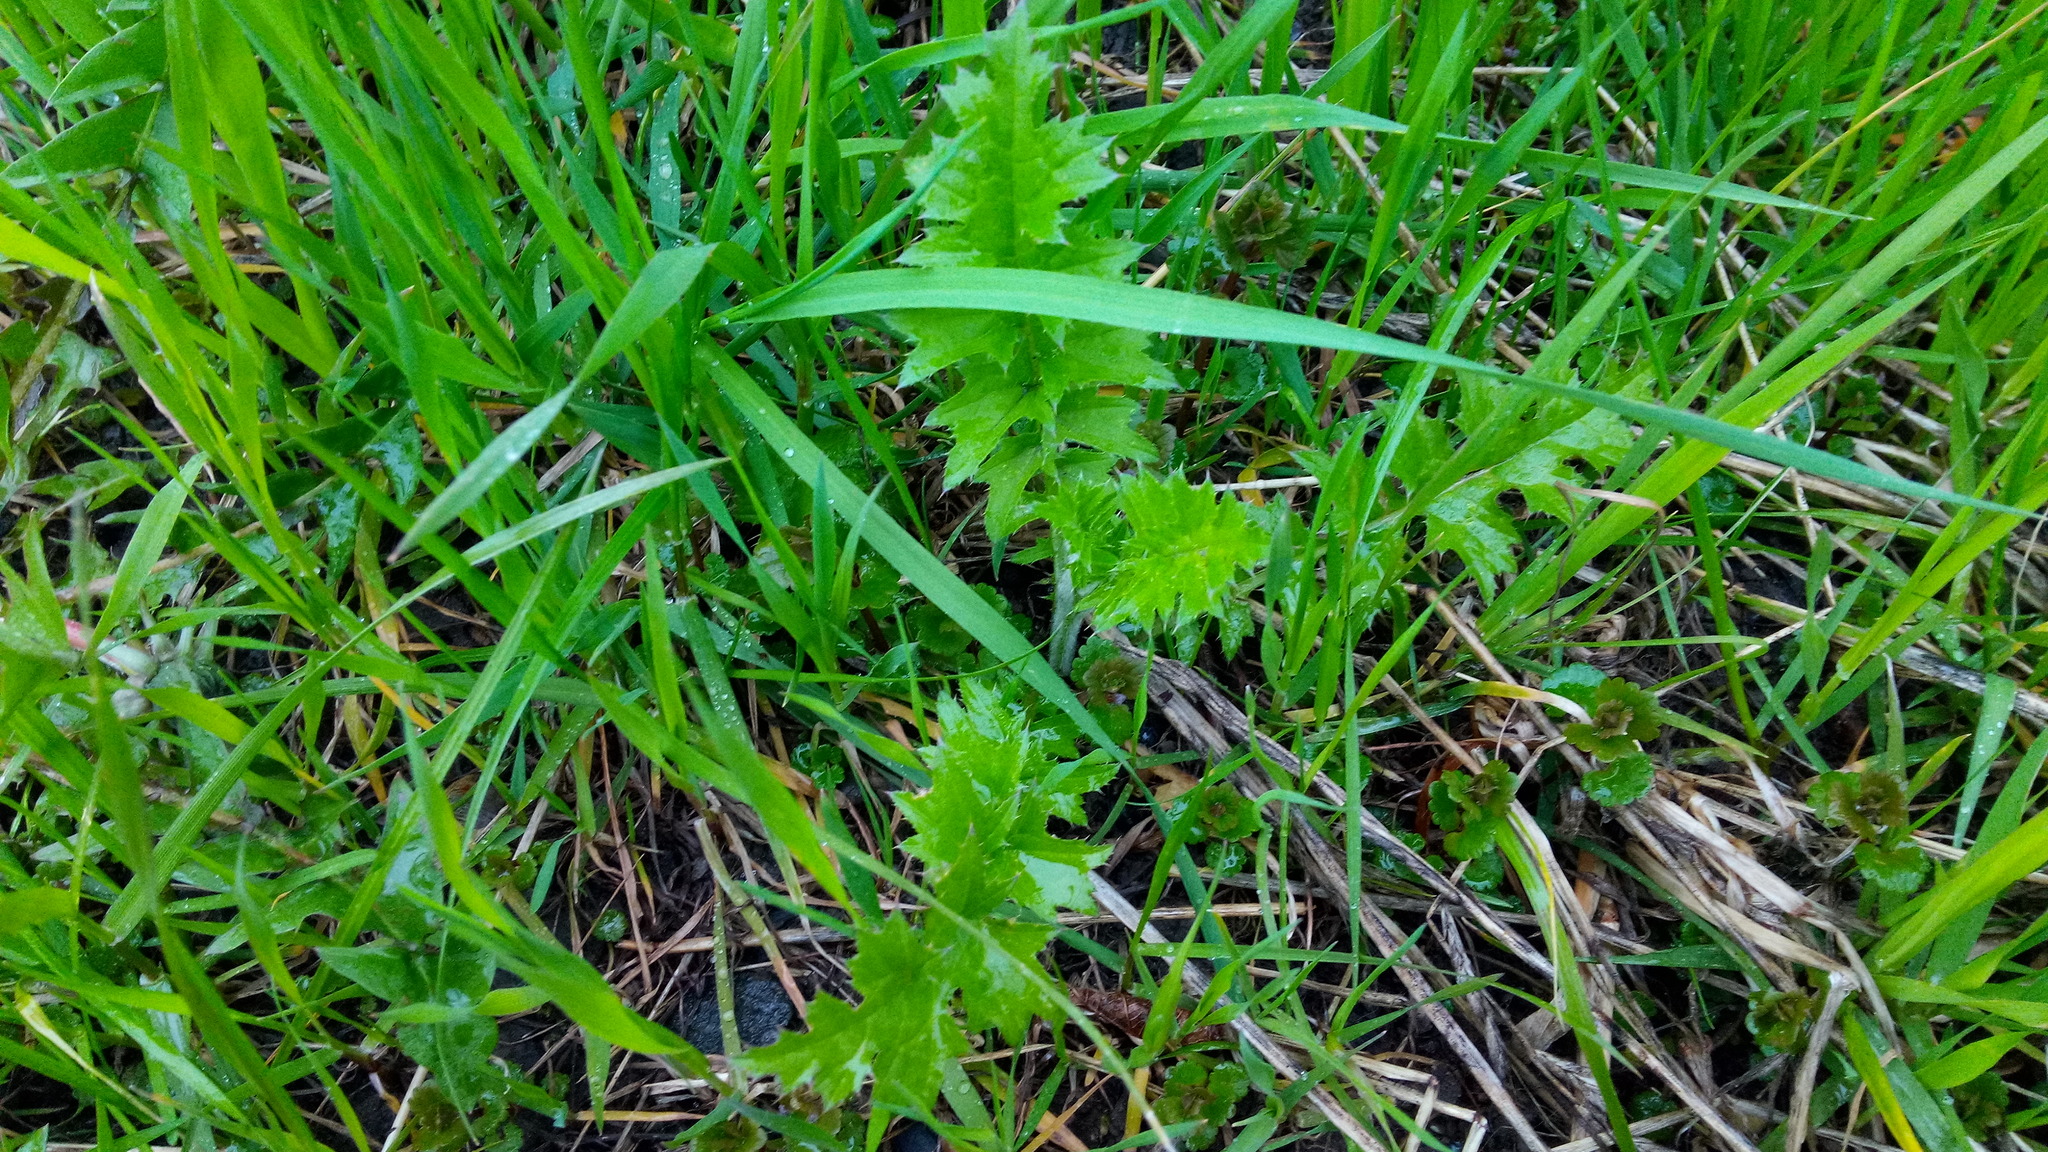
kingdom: Plantae
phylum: Tracheophyta
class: Magnoliopsida
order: Asterales
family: Asteraceae
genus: Carduus
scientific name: Carduus crispus
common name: Welted thistle
